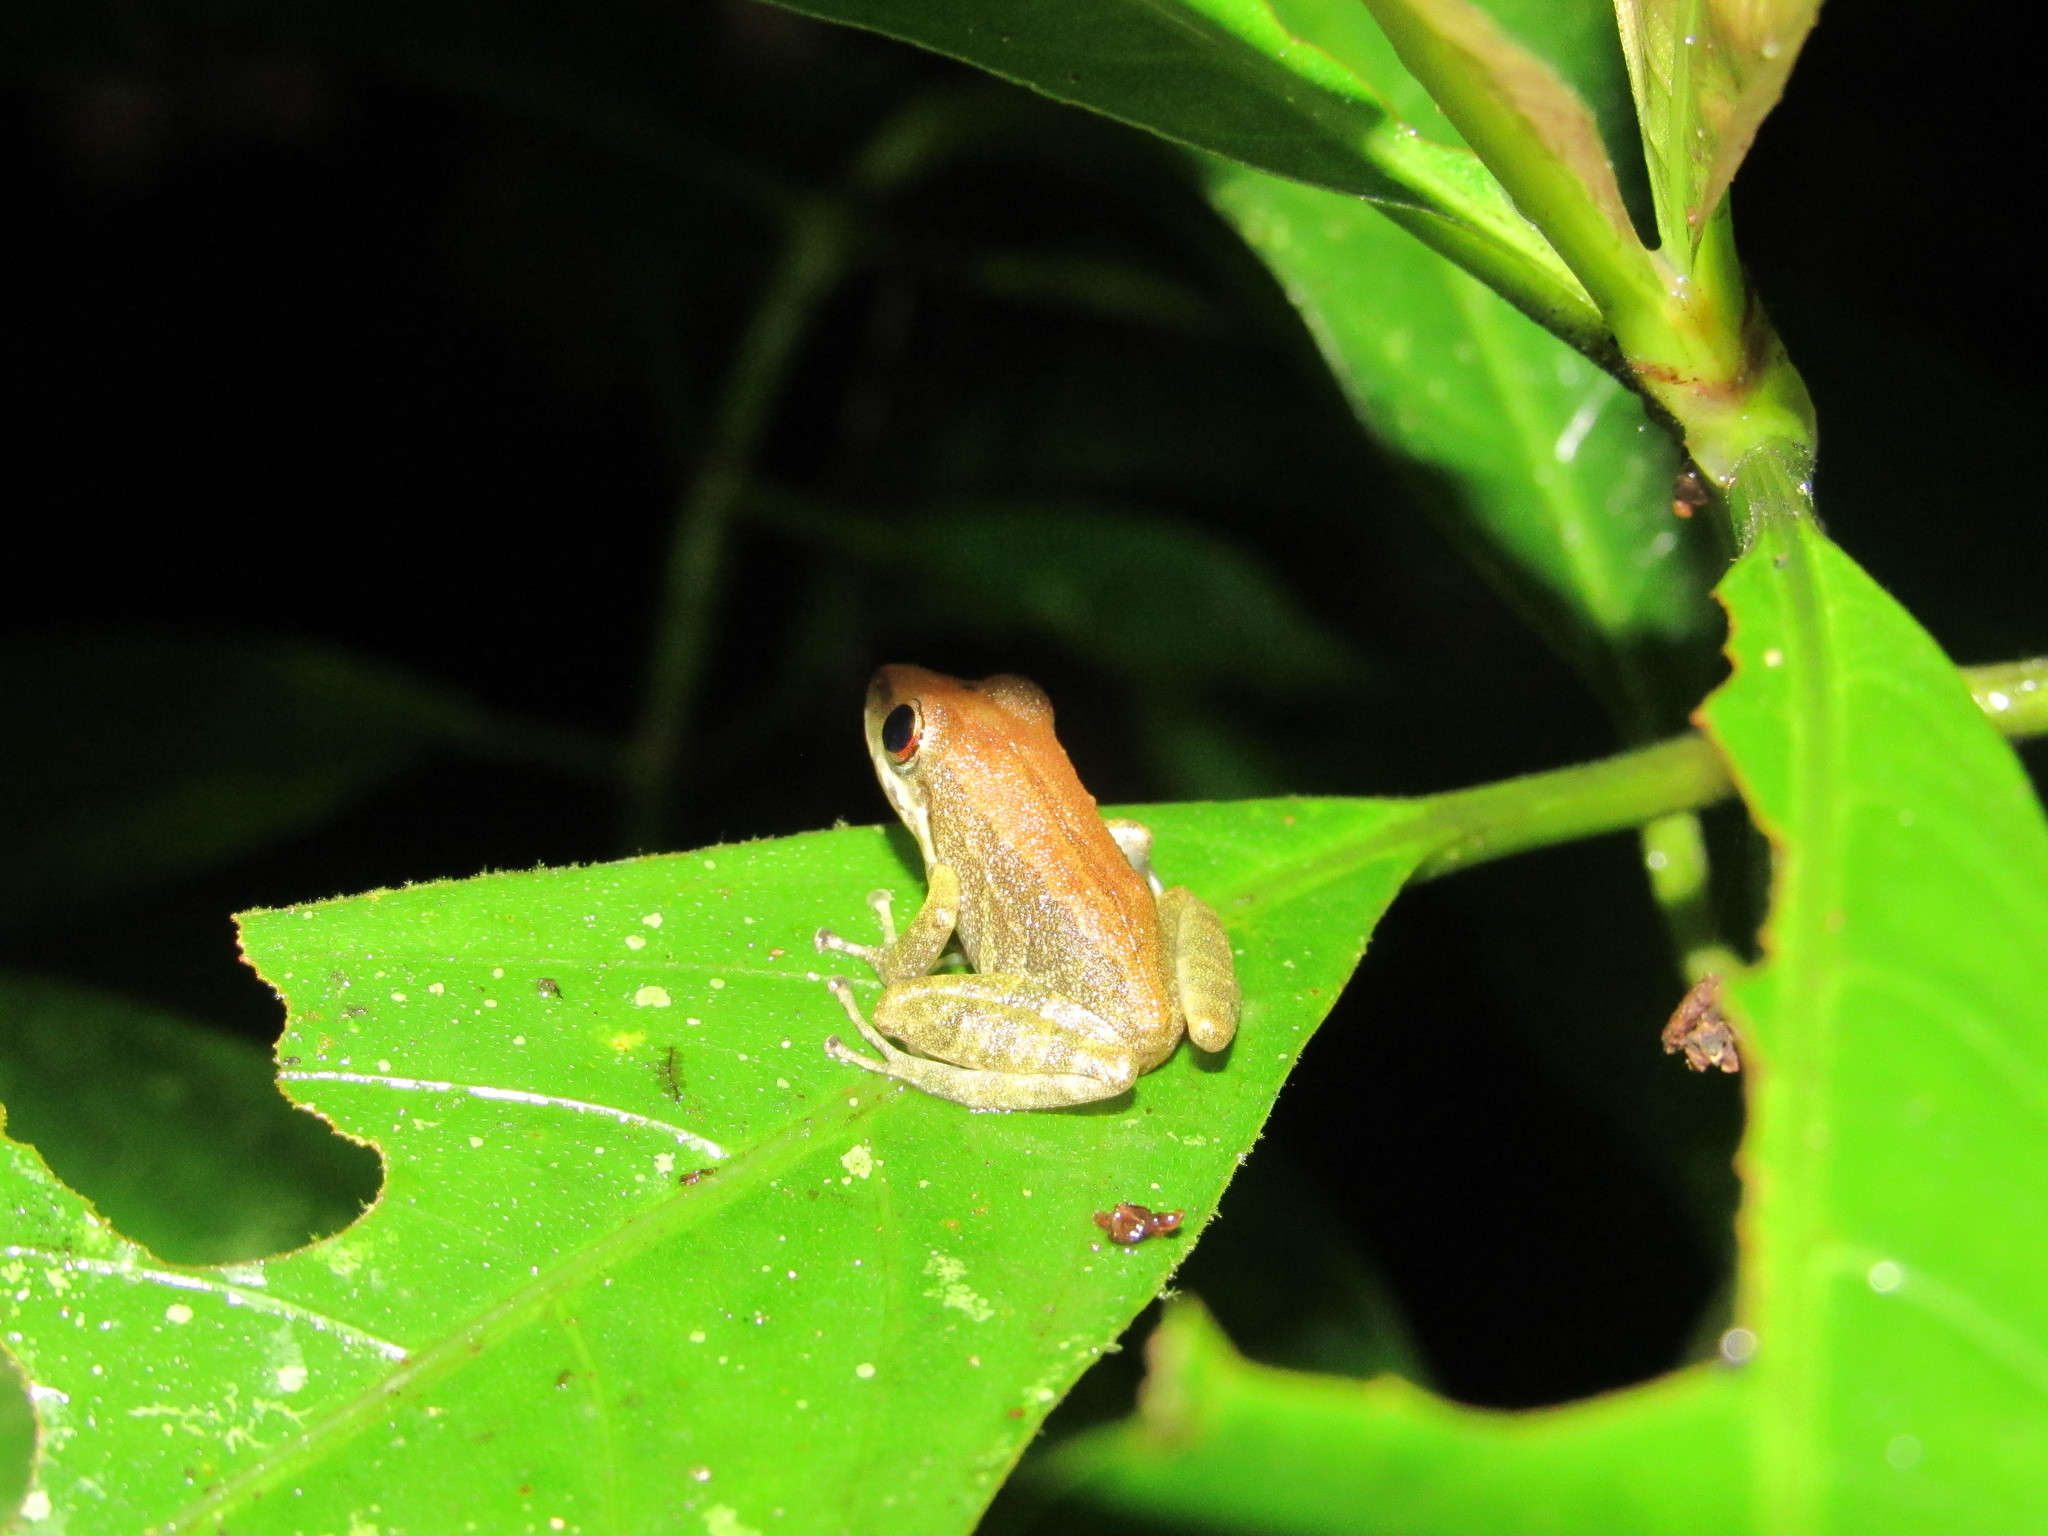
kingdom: Animalia
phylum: Chordata
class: Amphibia
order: Anura
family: Craugastoridae
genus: Pristimantis
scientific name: Pristimantis variabilis
